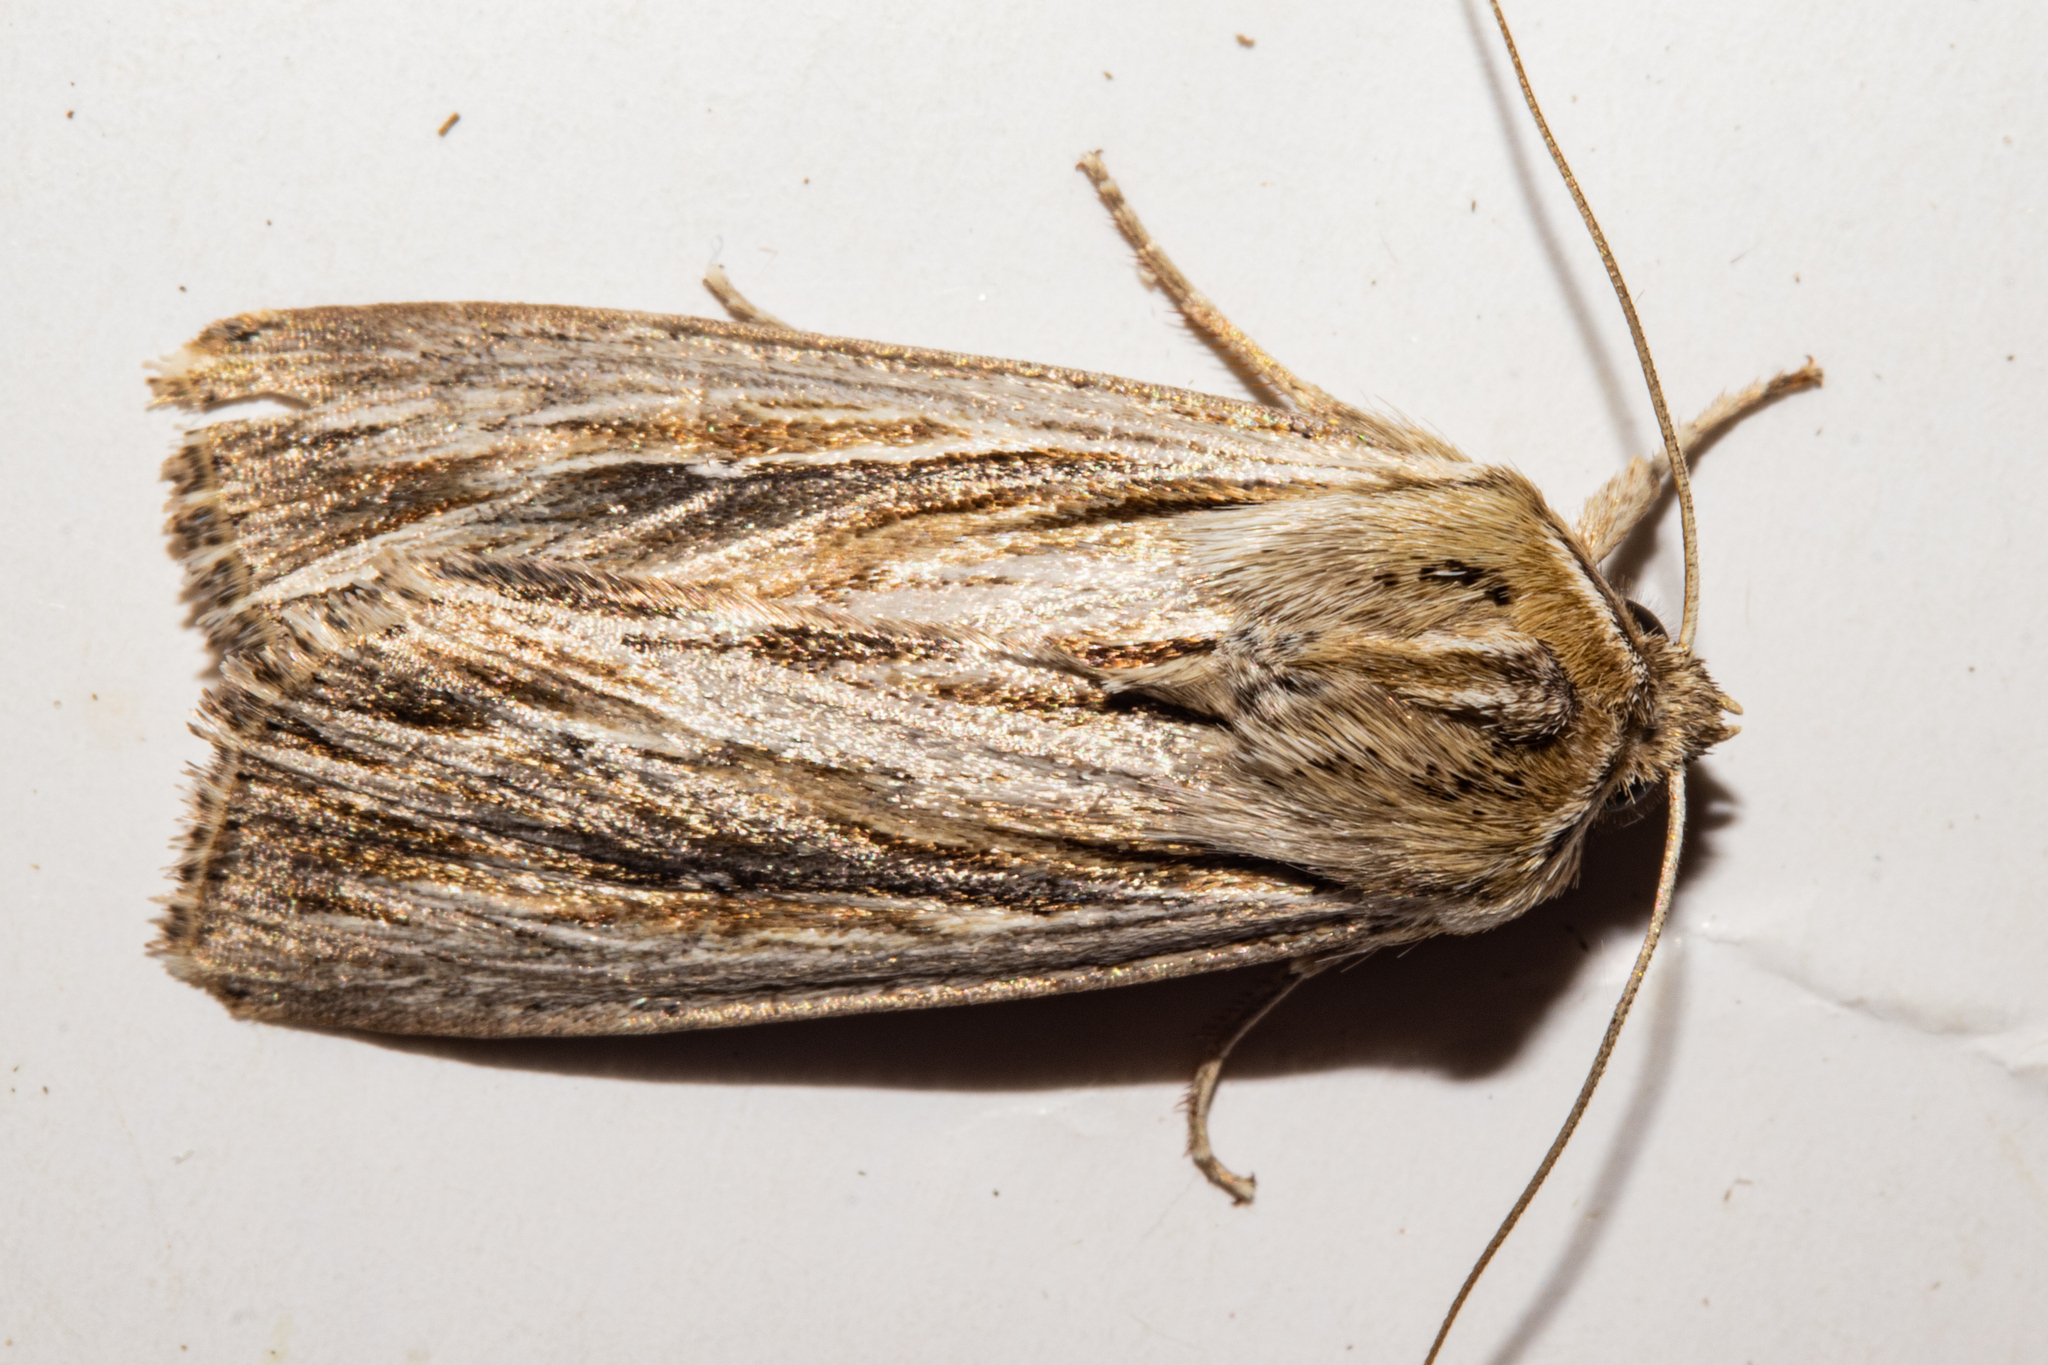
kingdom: Animalia
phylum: Arthropoda
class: Insecta
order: Lepidoptera
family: Noctuidae
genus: Persectania
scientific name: Persectania aversa
